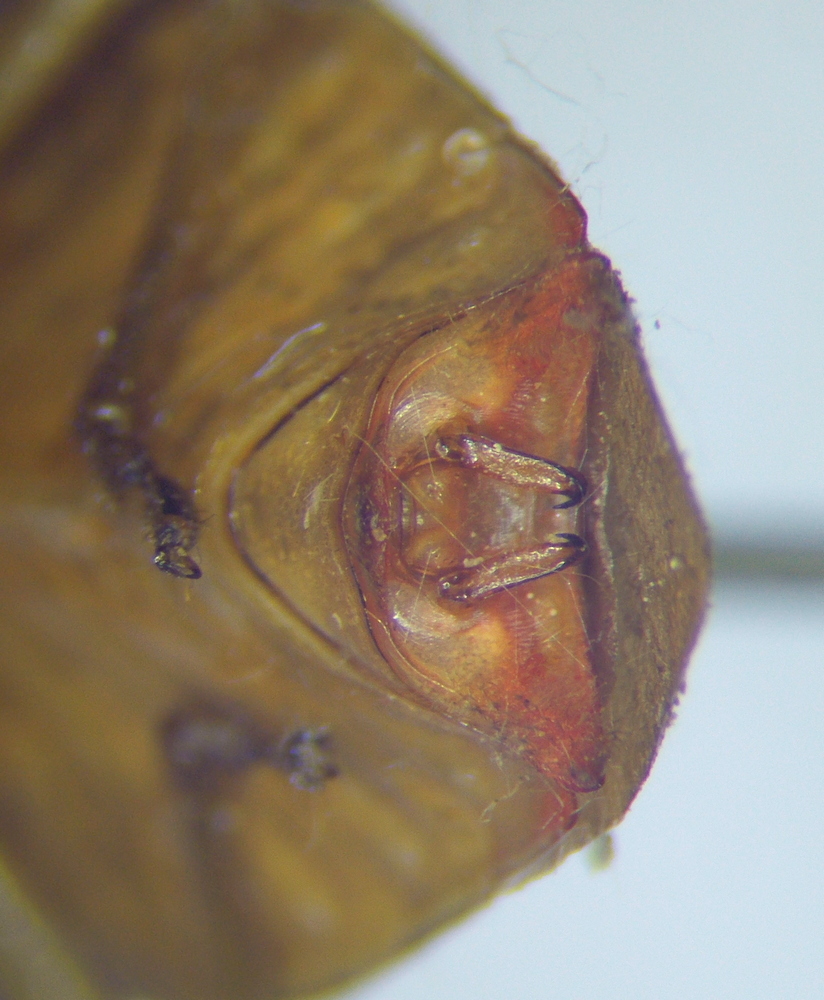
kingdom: Animalia
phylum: Arthropoda
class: Insecta
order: Hemiptera
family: Acanthosomatidae
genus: Acanthosoma
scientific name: Acanthosoma haemorrhoidale
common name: Hawthorn shieldbug
